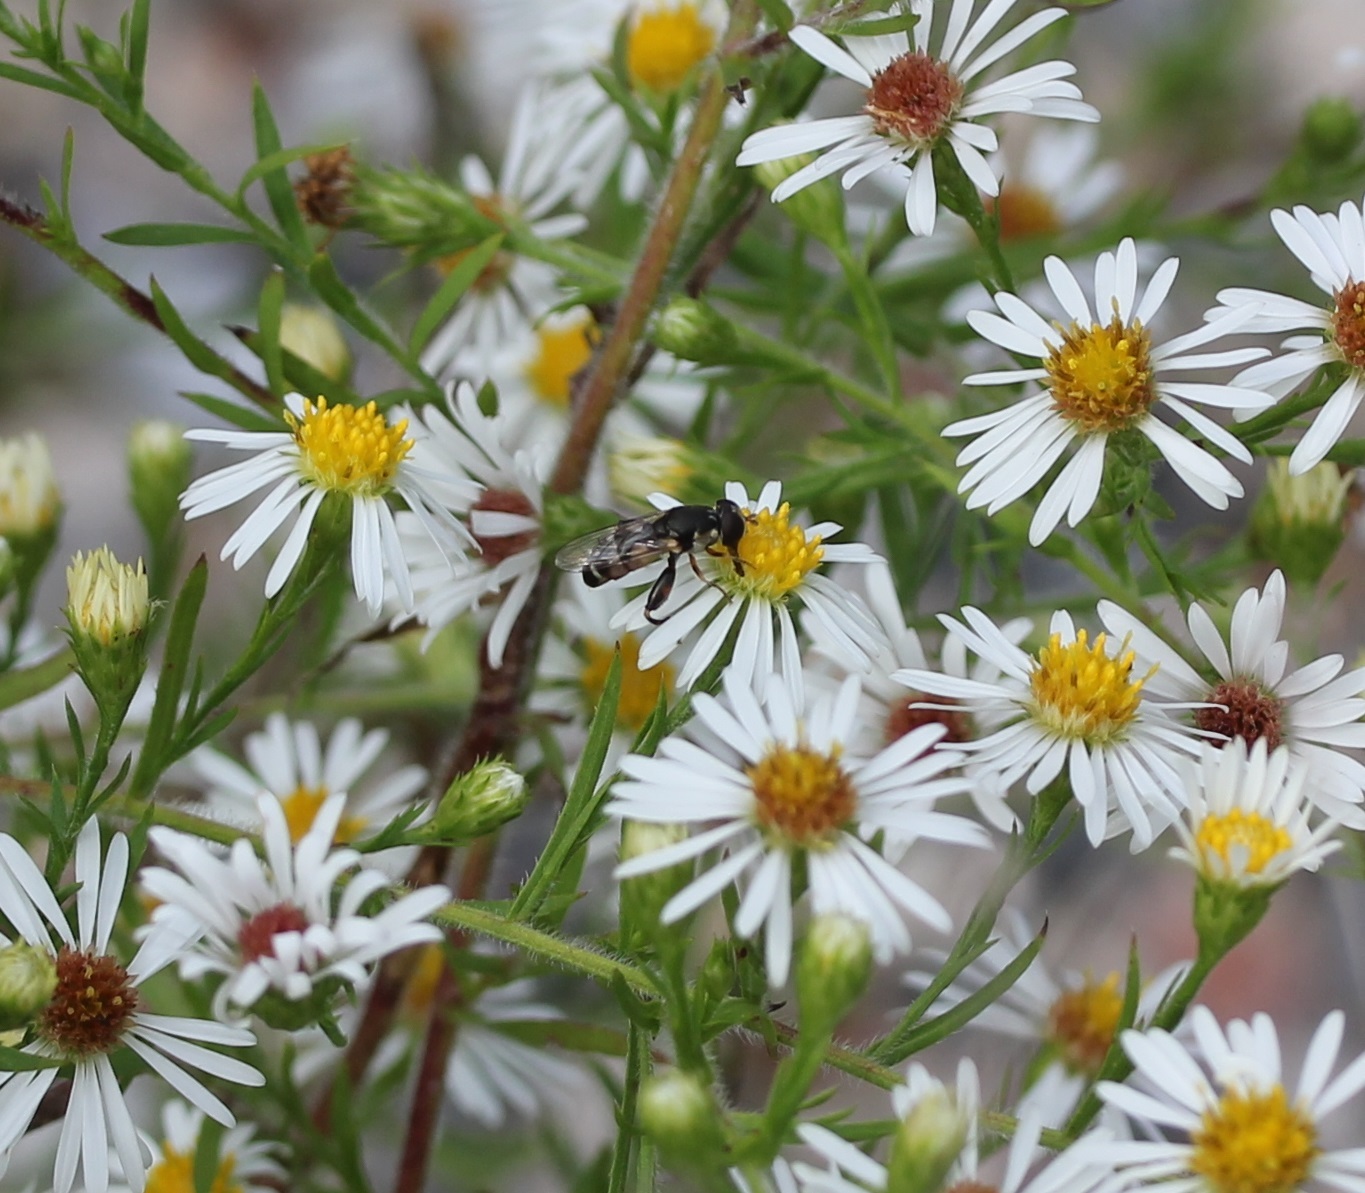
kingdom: Animalia
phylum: Arthropoda
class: Insecta
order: Diptera
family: Syrphidae
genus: Syritta
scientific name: Syritta pipiens
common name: Hover fly
